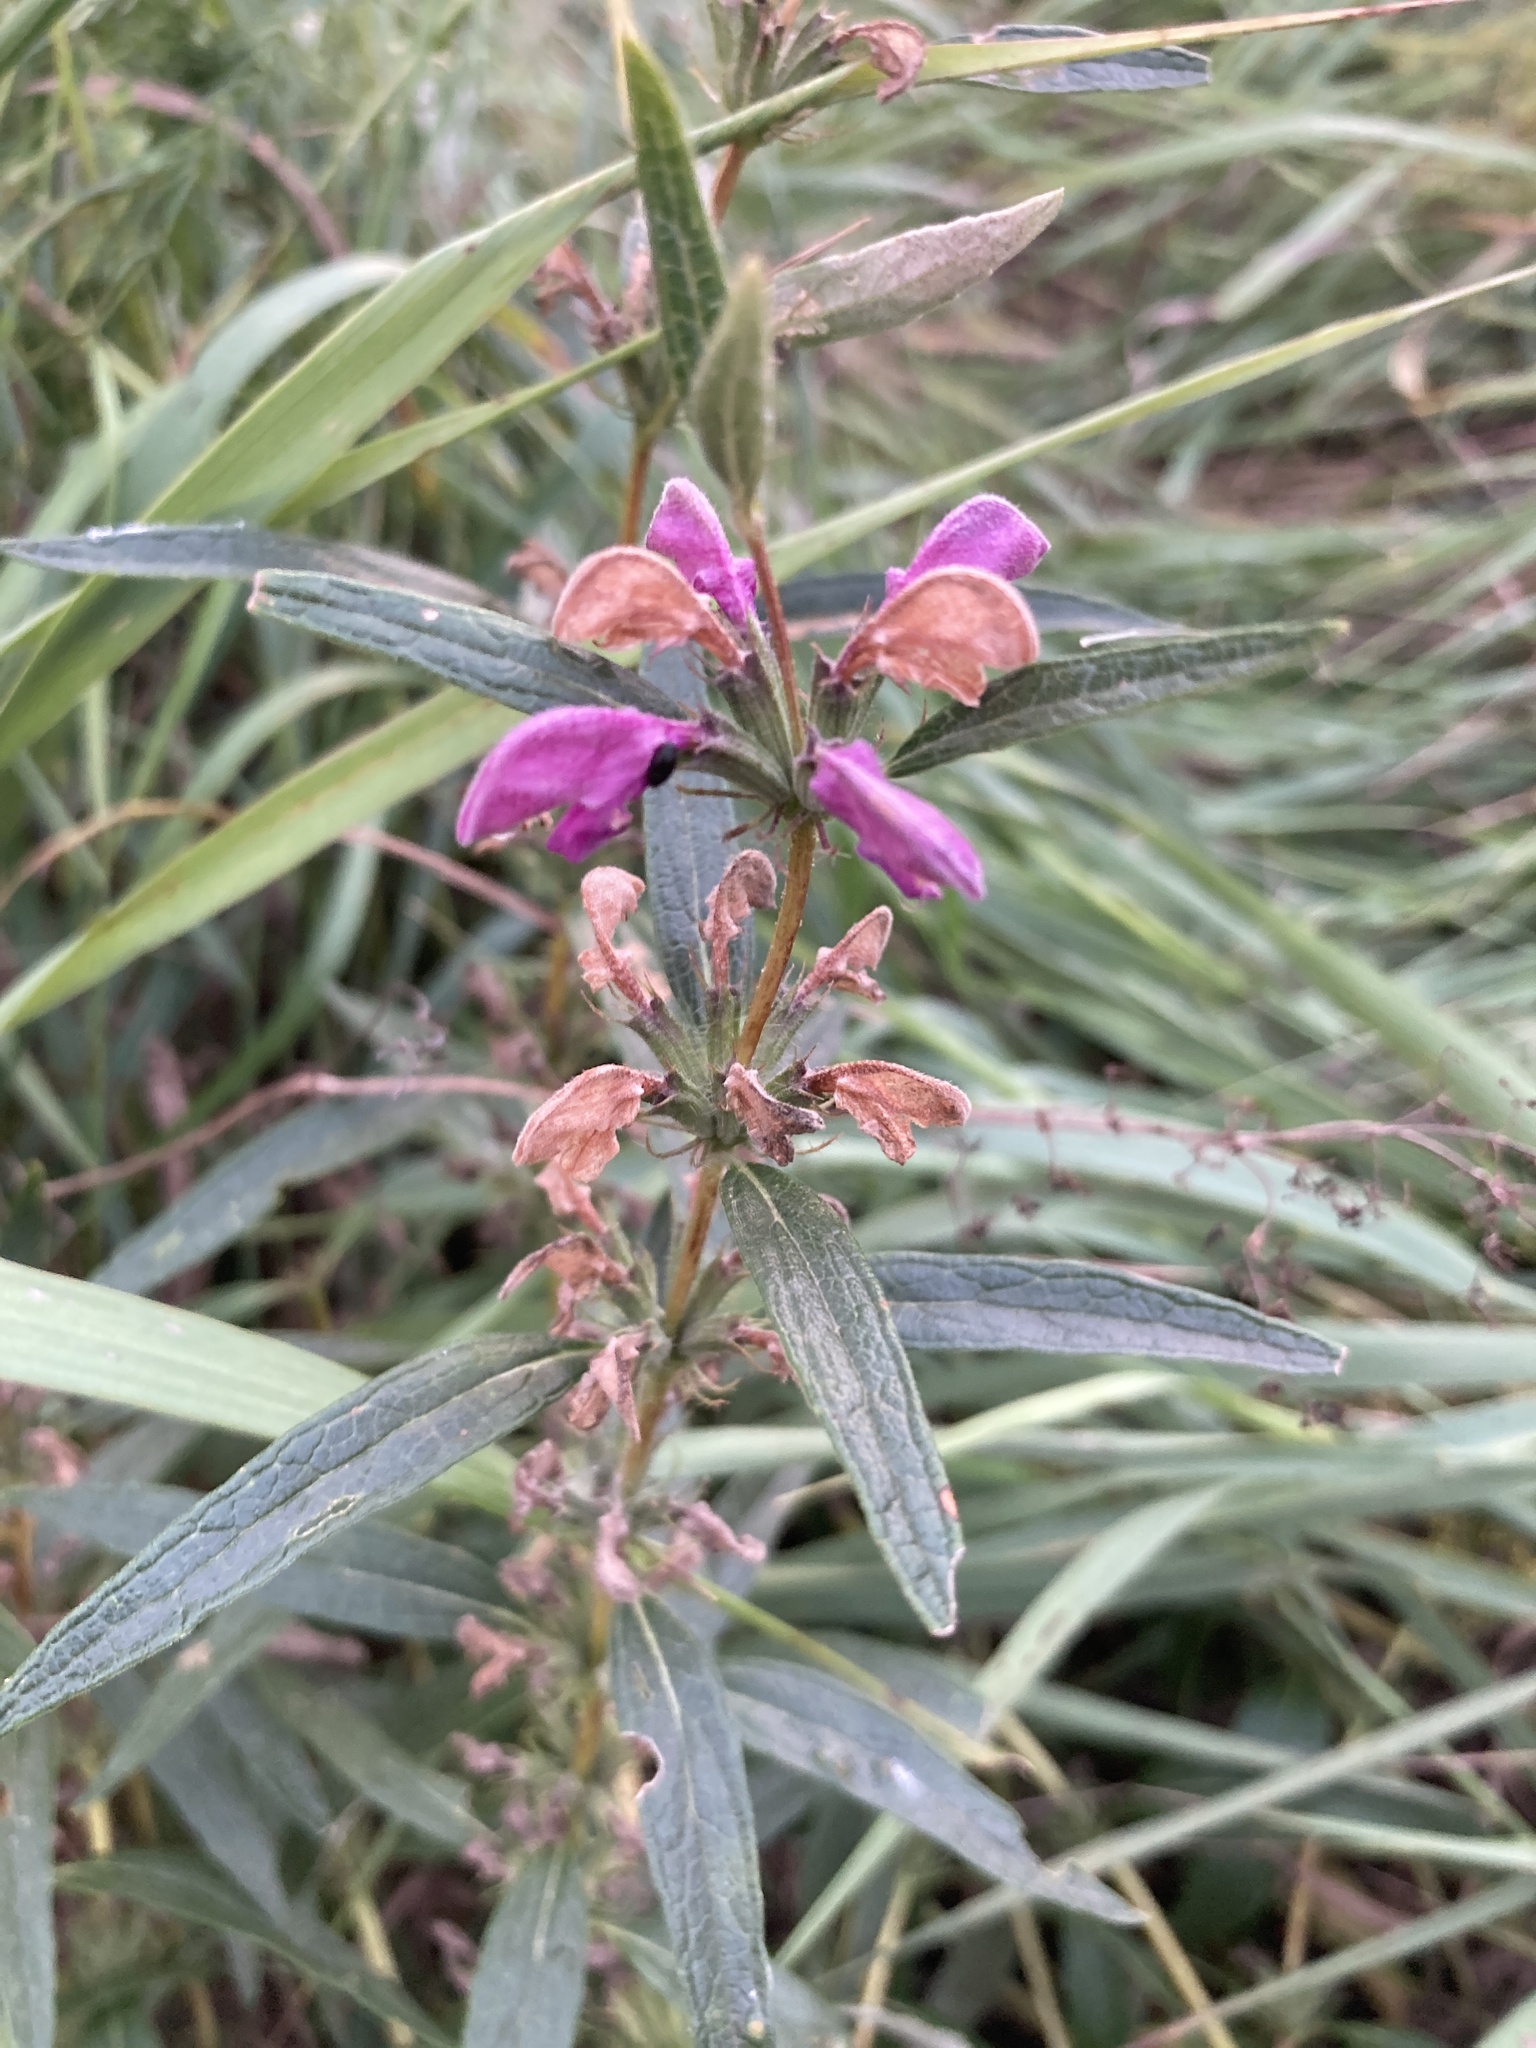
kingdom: Plantae
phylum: Tracheophyta
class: Magnoliopsida
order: Lamiales
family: Lamiaceae
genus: Phlomis
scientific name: Phlomis herba-venti
